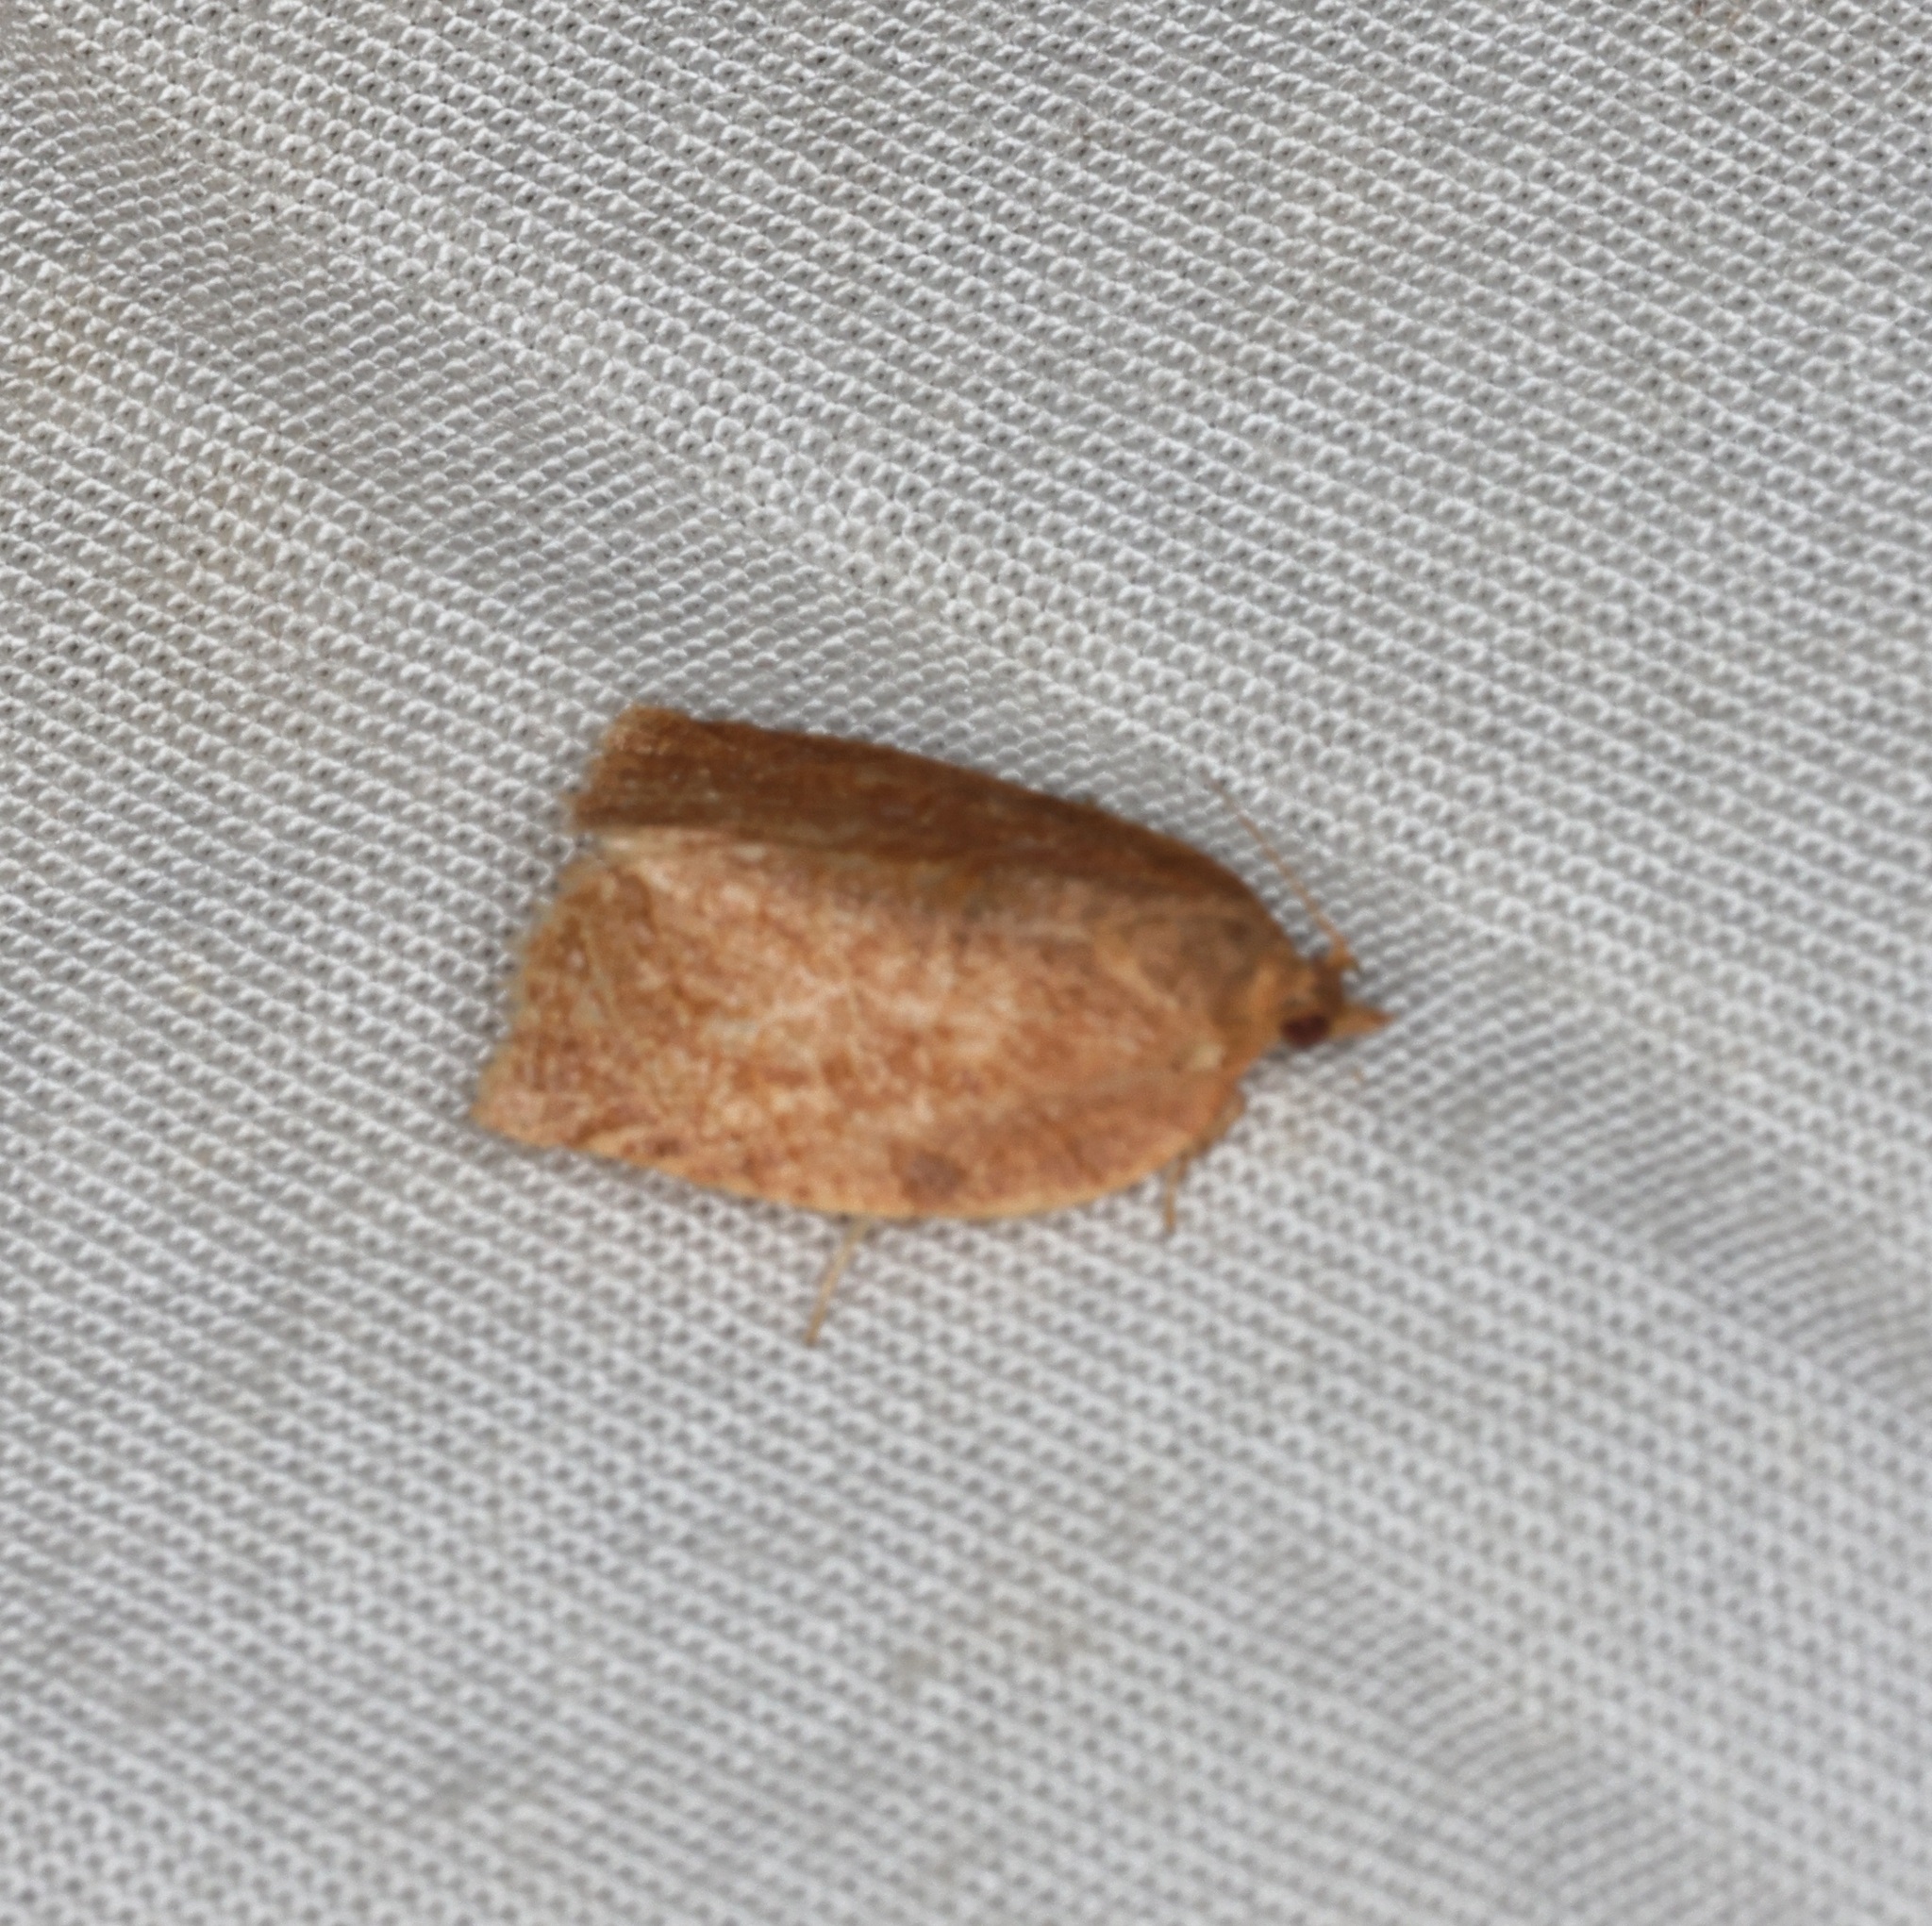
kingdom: Animalia
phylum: Arthropoda
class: Insecta
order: Lepidoptera
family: Tortricidae
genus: Adoxophyes
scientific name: Adoxophyes privatana
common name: Asian orchid tortrix
